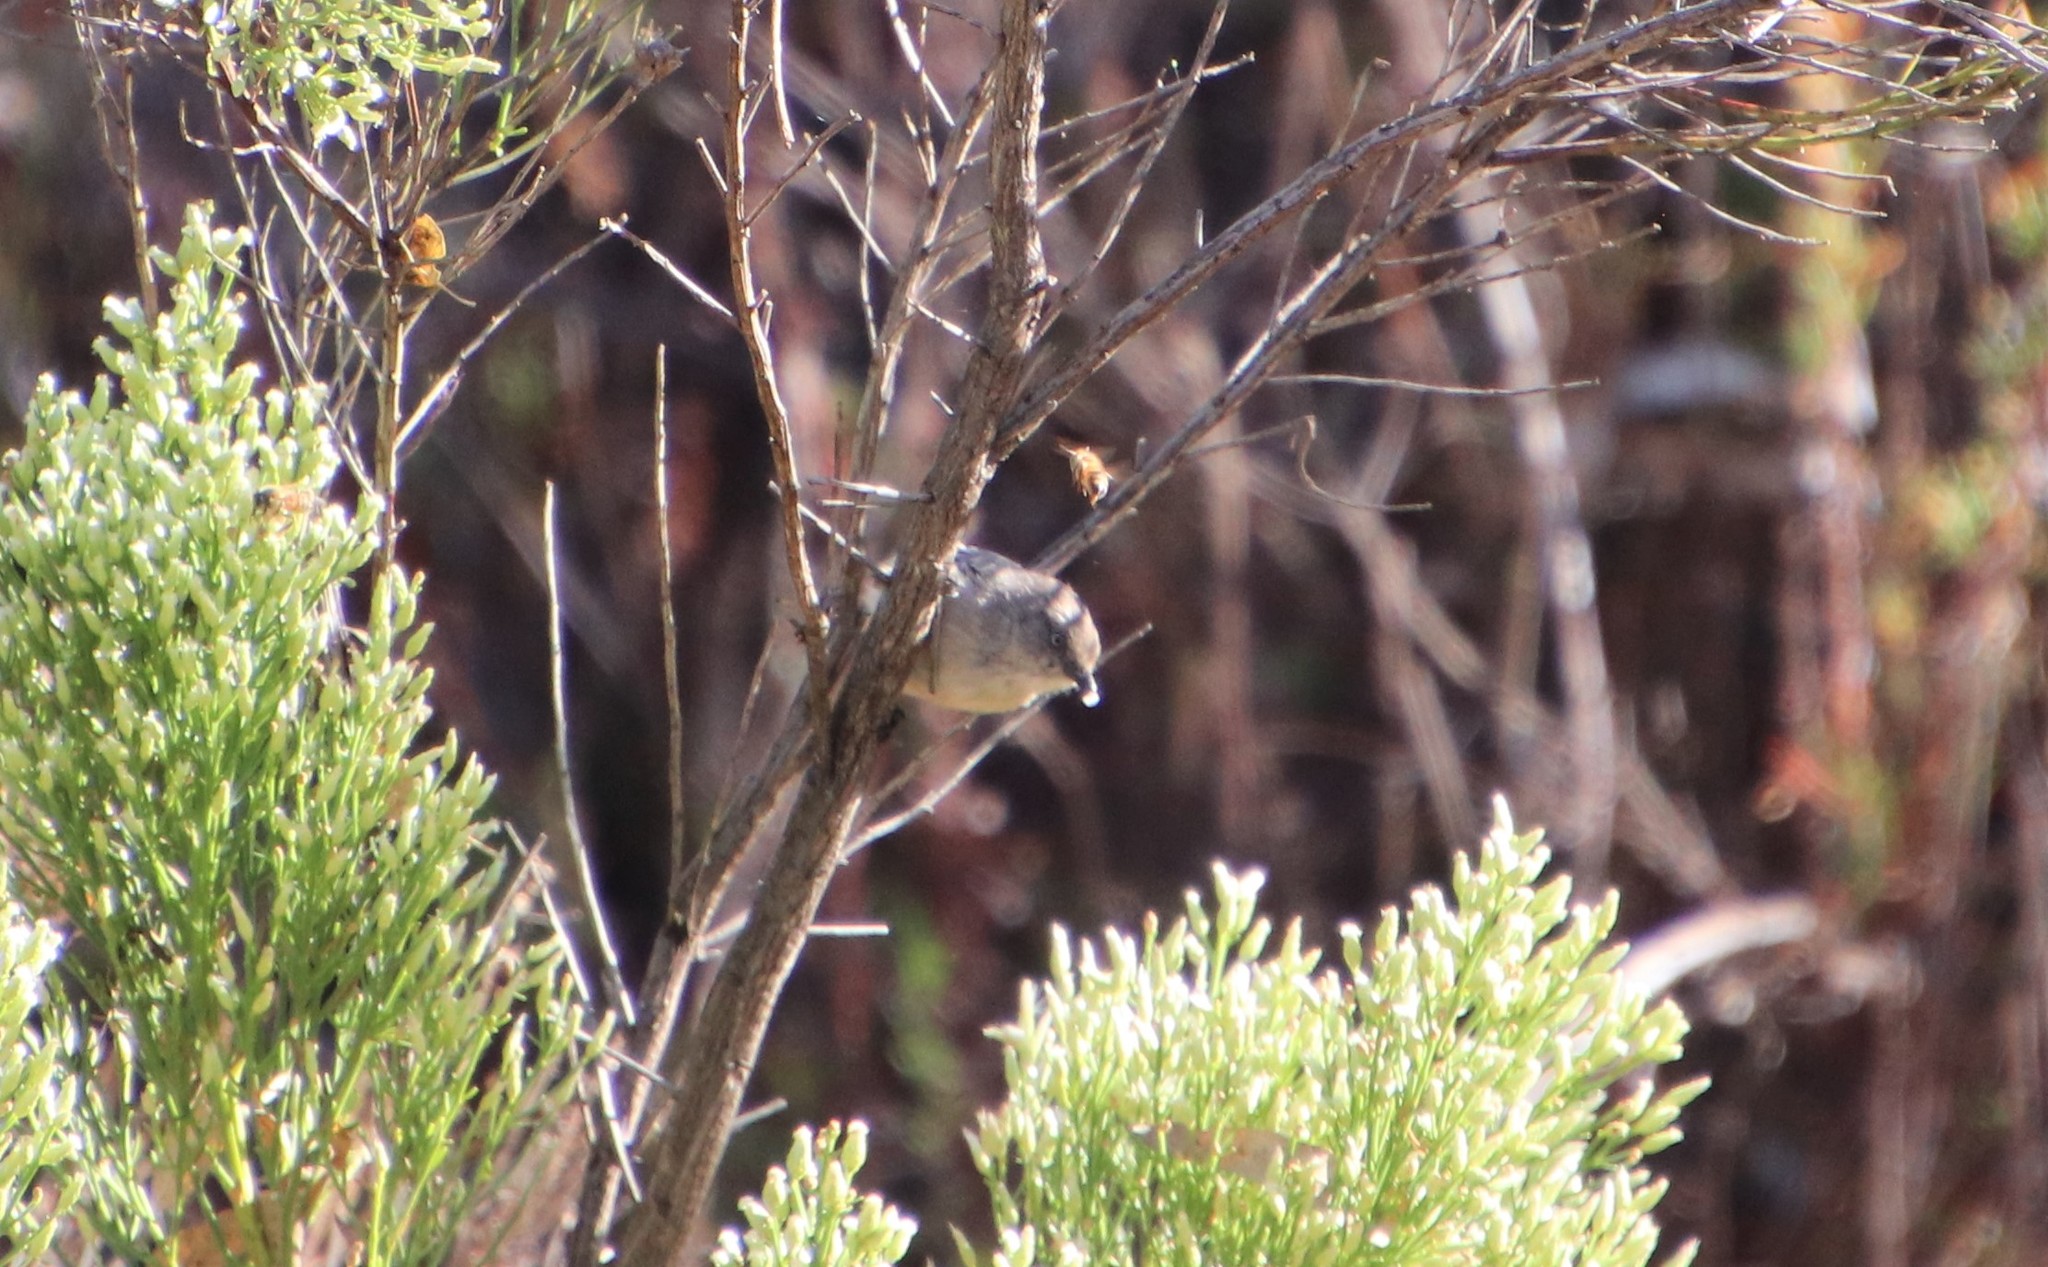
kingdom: Animalia
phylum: Chordata
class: Aves
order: Passeriformes
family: Aegithalidae
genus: Psaltriparus
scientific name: Psaltriparus minimus
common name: American bushtit
